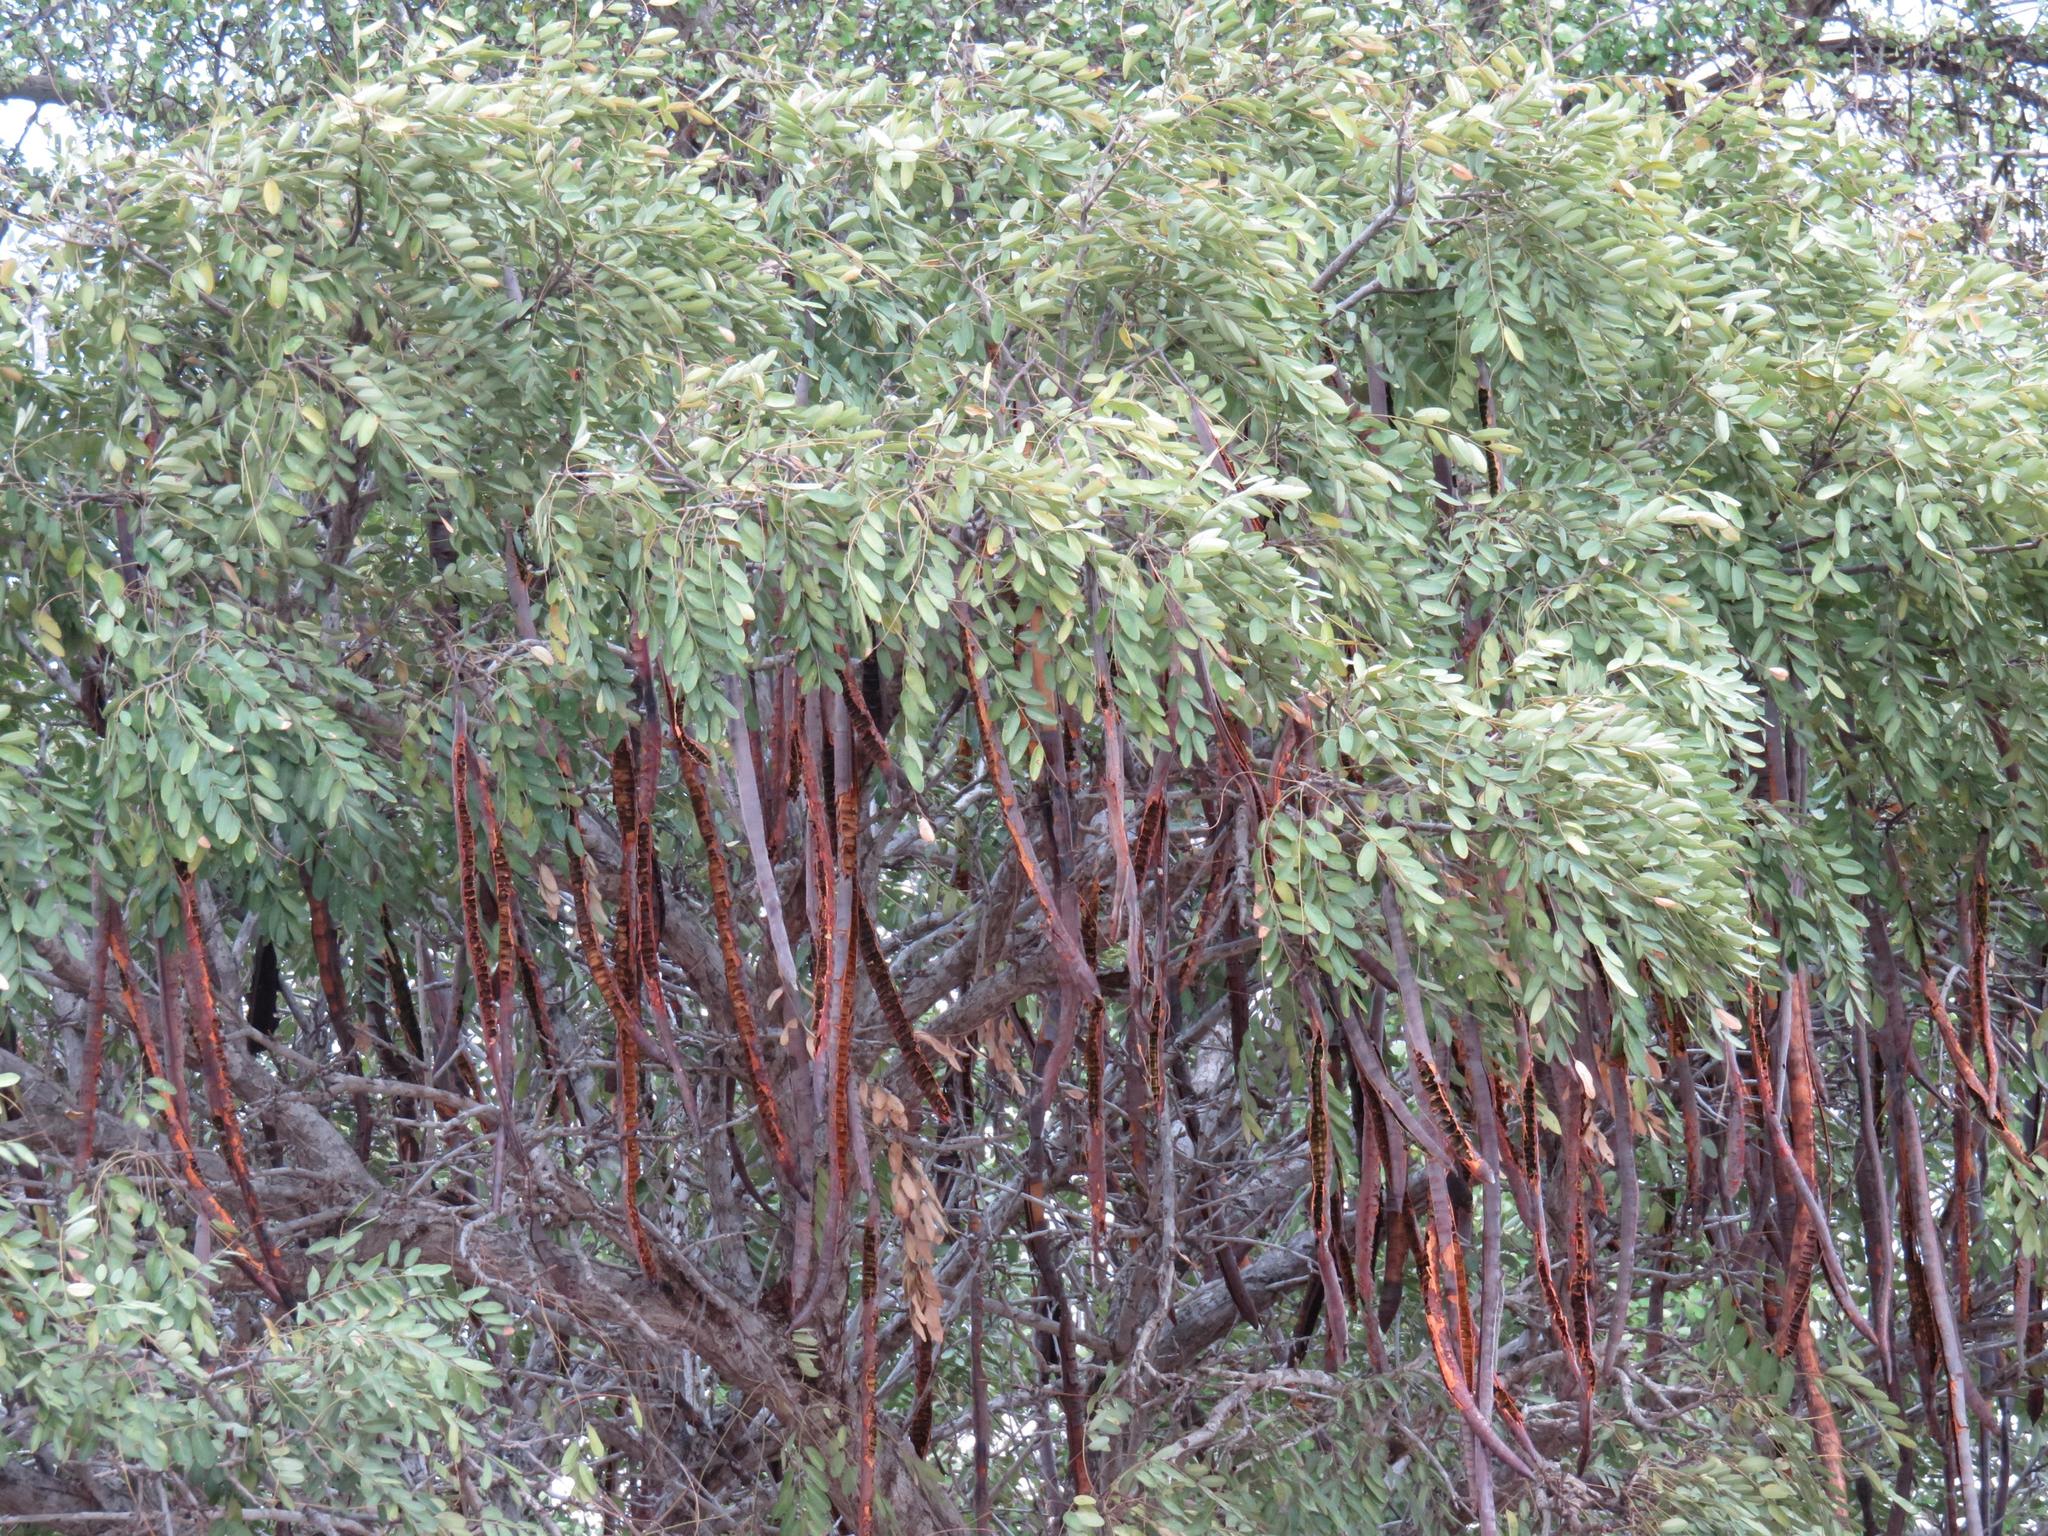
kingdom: Plantae
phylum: Tracheophyta
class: Magnoliopsida
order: Fabales
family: Fabaceae
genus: Cassia
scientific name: Cassia abbreviata
